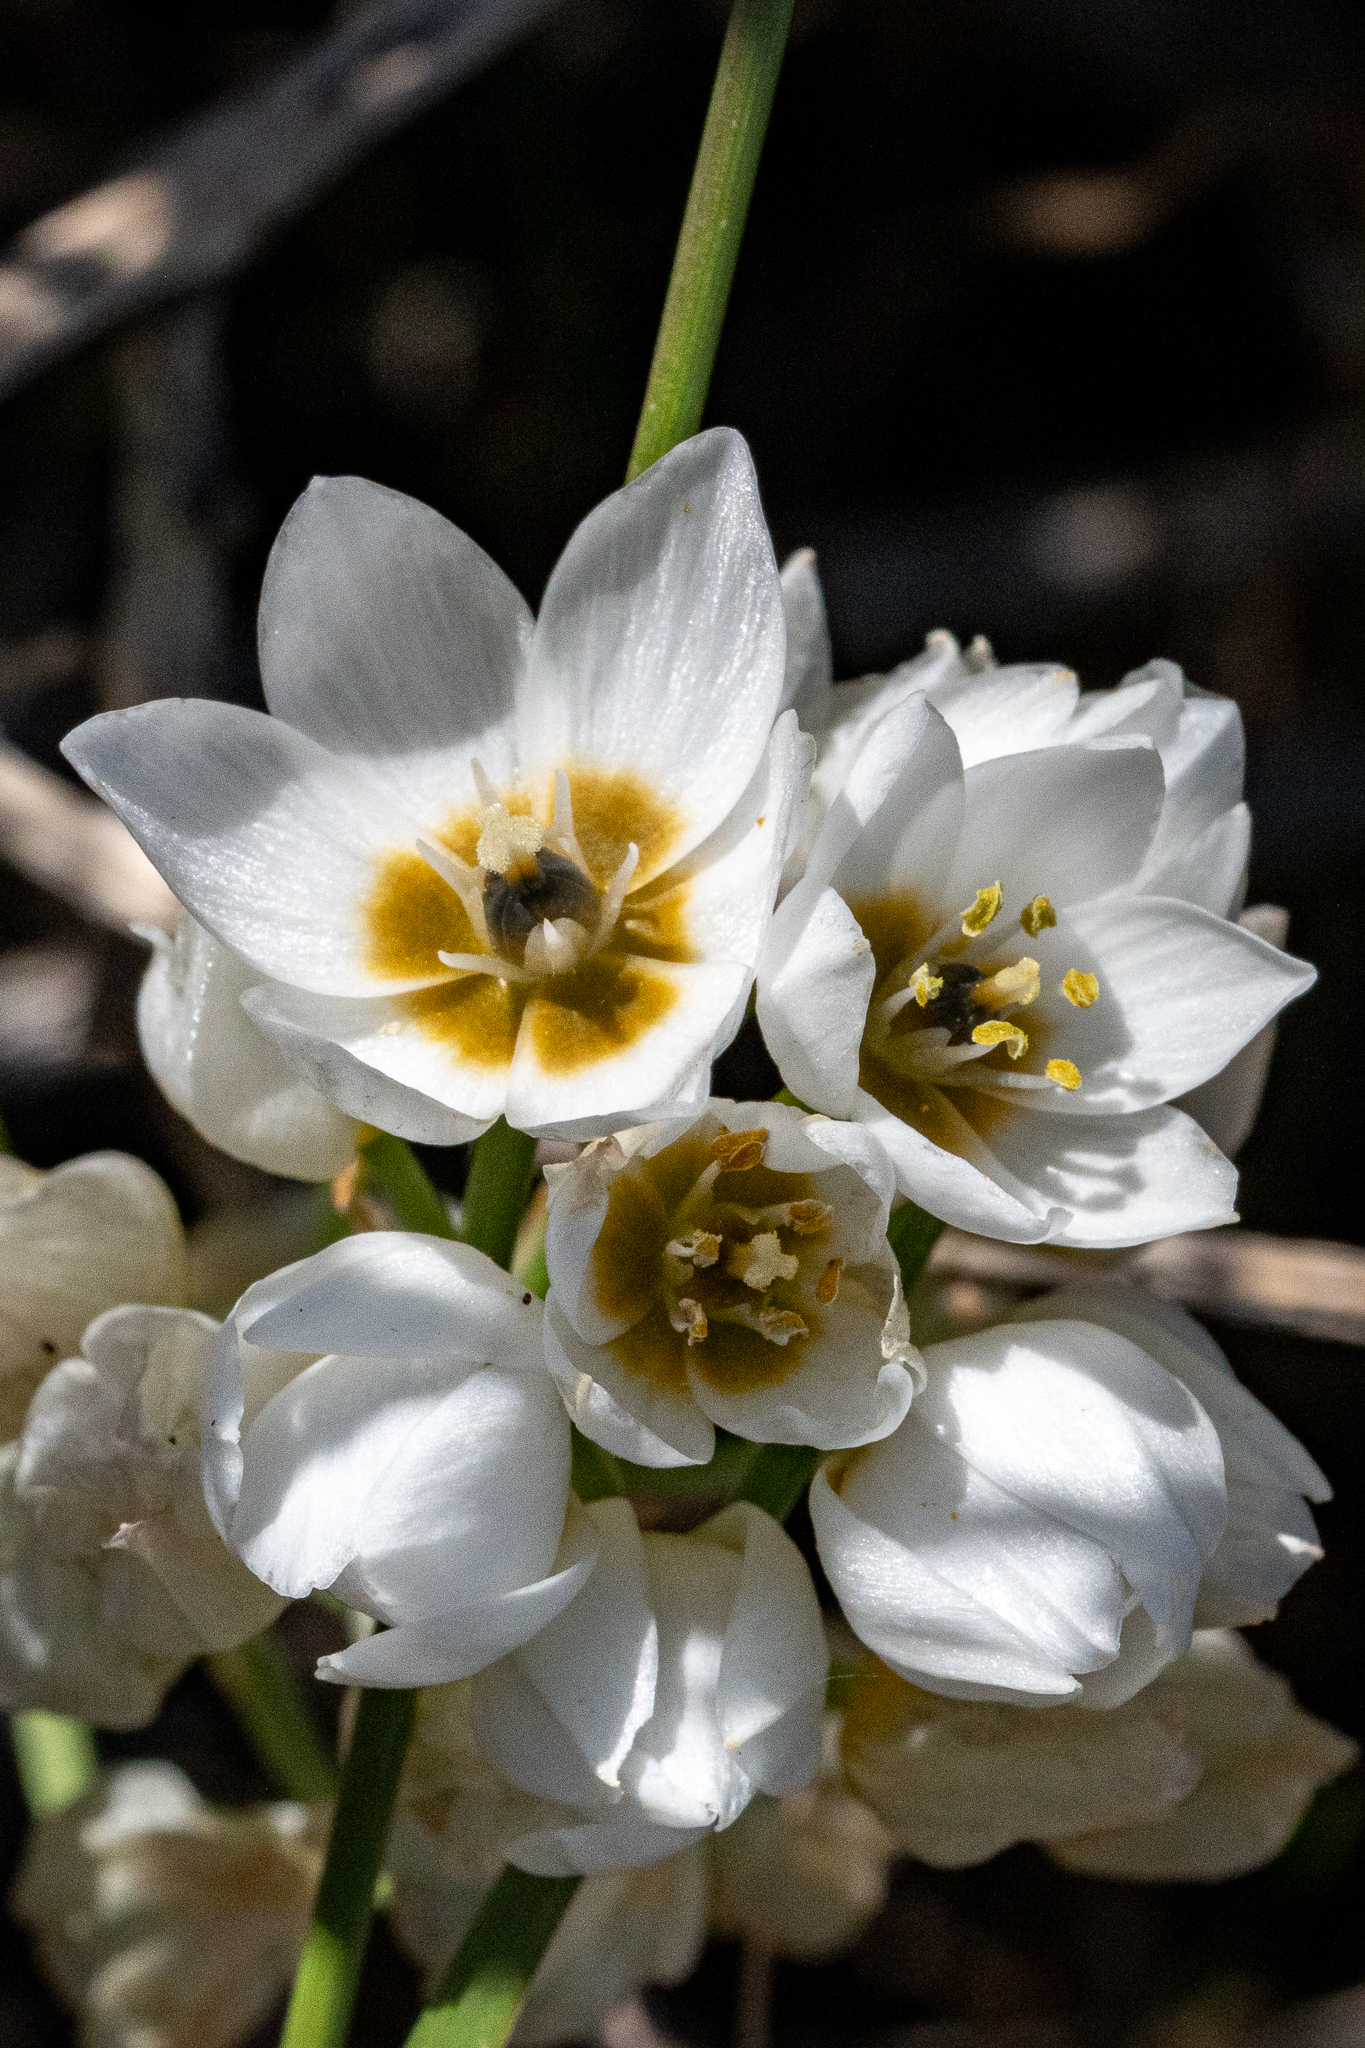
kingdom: Plantae
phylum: Tracheophyta
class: Liliopsida
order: Asparagales
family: Asparagaceae
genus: Ornithogalum
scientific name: Ornithogalum thyrsoides
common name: Chincherinchee
